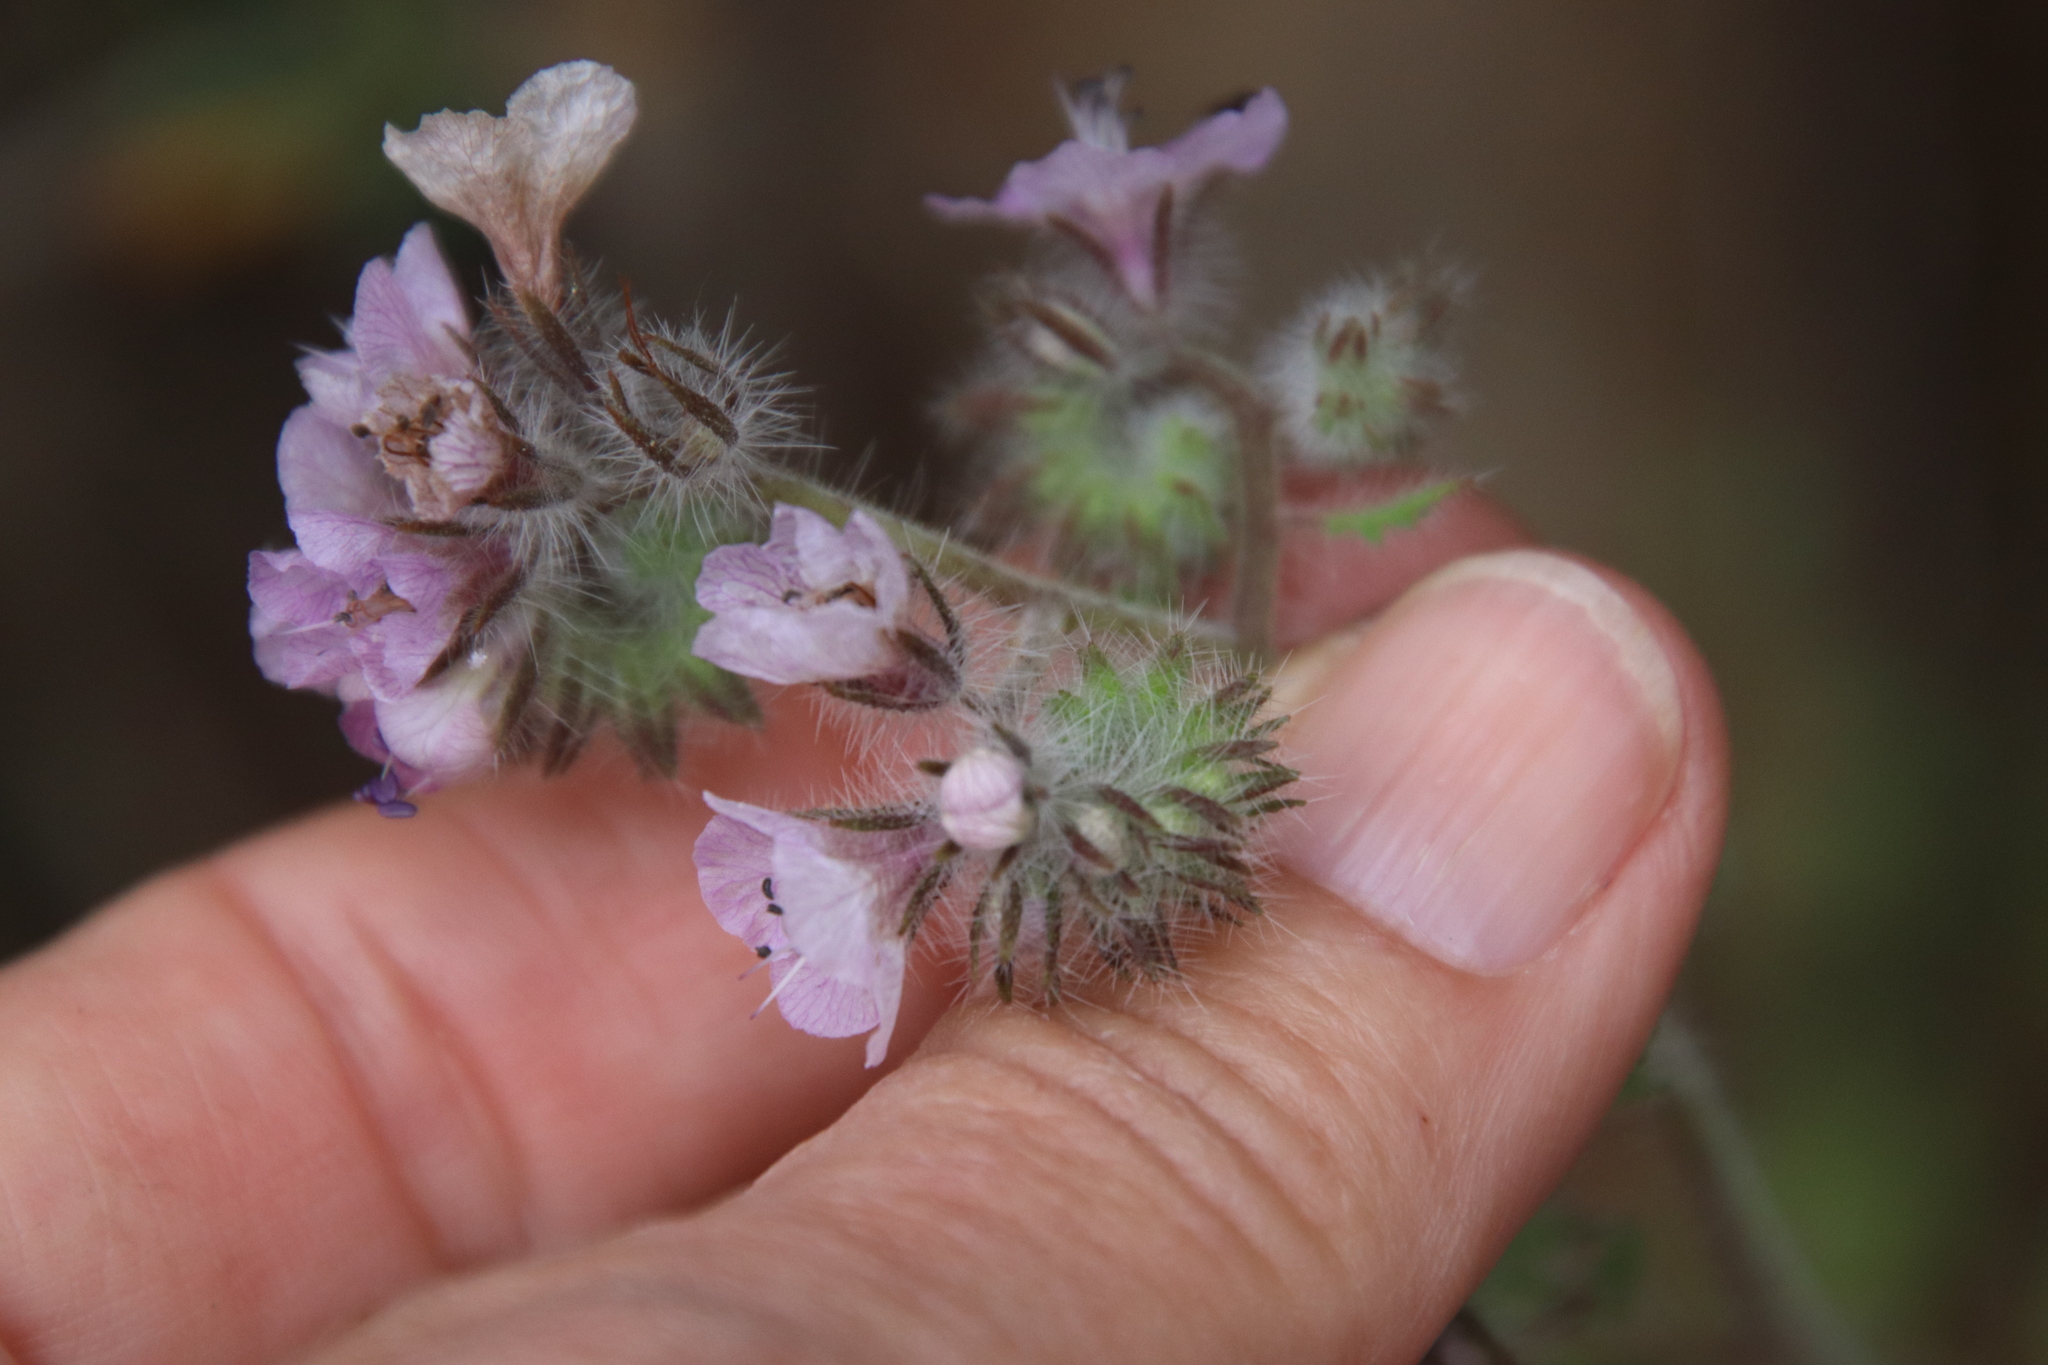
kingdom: Plantae
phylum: Tracheophyta
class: Magnoliopsida
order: Boraginales
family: Hydrophyllaceae
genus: Phacelia
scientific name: Phacelia cicutaria
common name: Caterpillar phacelia
